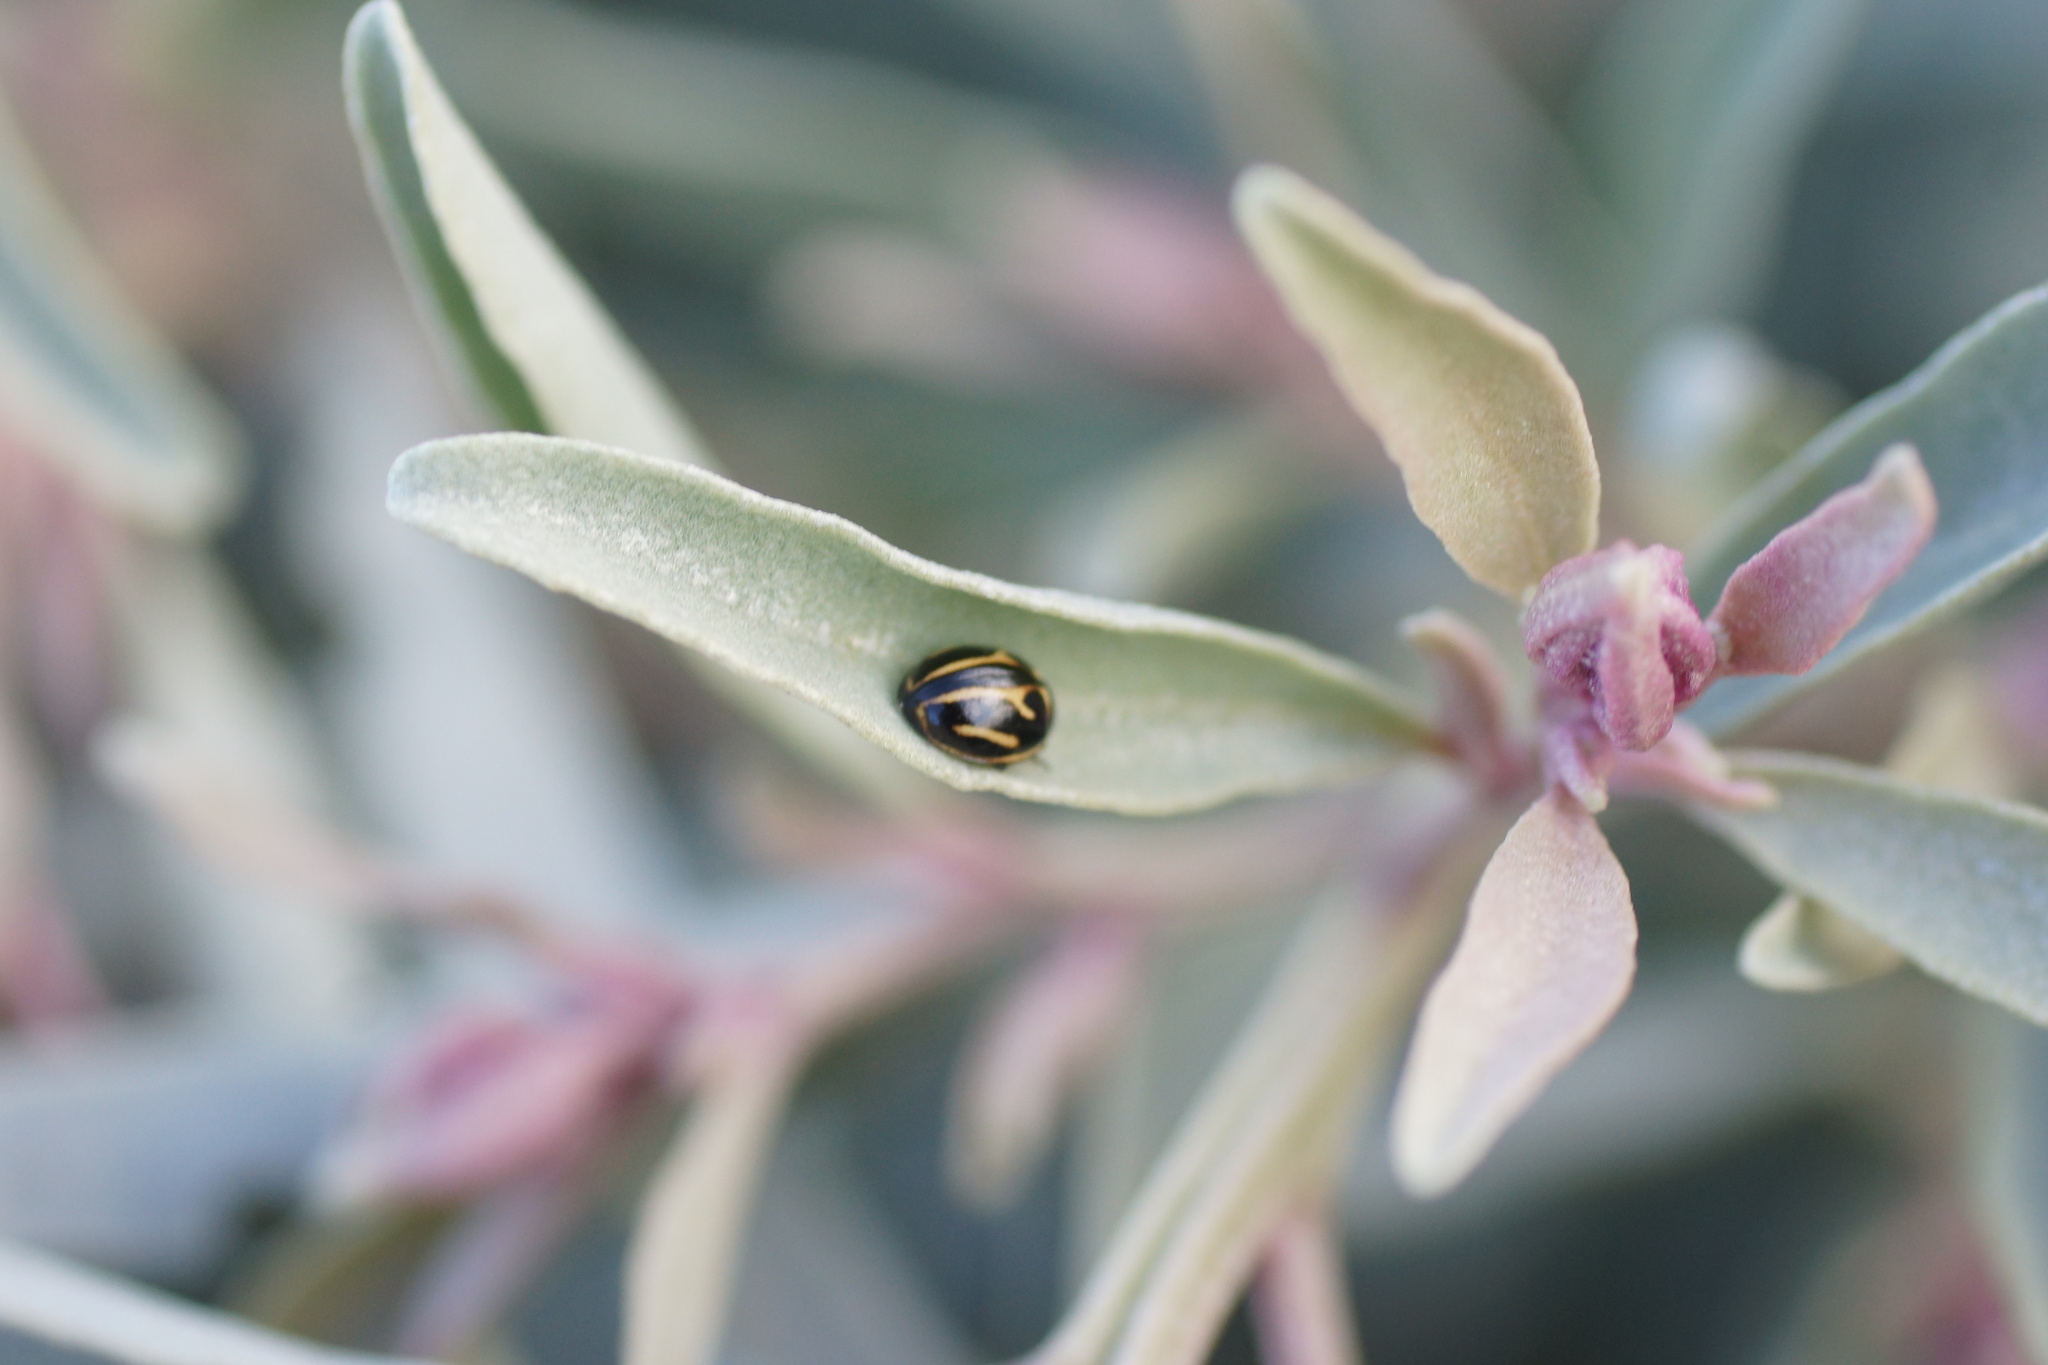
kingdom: Animalia
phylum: Arthropoda
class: Insecta
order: Coleoptera
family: Coccinellidae
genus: Micraspis
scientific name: Micraspis
